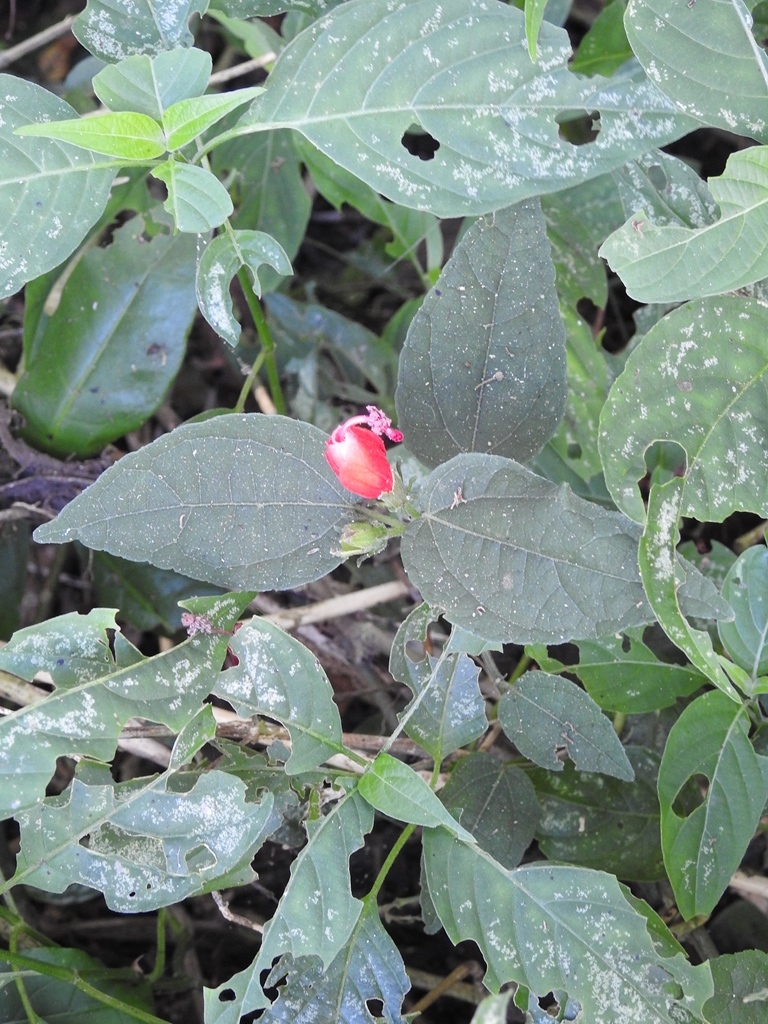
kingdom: Plantae
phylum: Tracheophyta
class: Magnoliopsida
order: Malvales
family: Malvaceae
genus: Malvaviscus
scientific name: Malvaviscus arboreus
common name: Wax mallow
